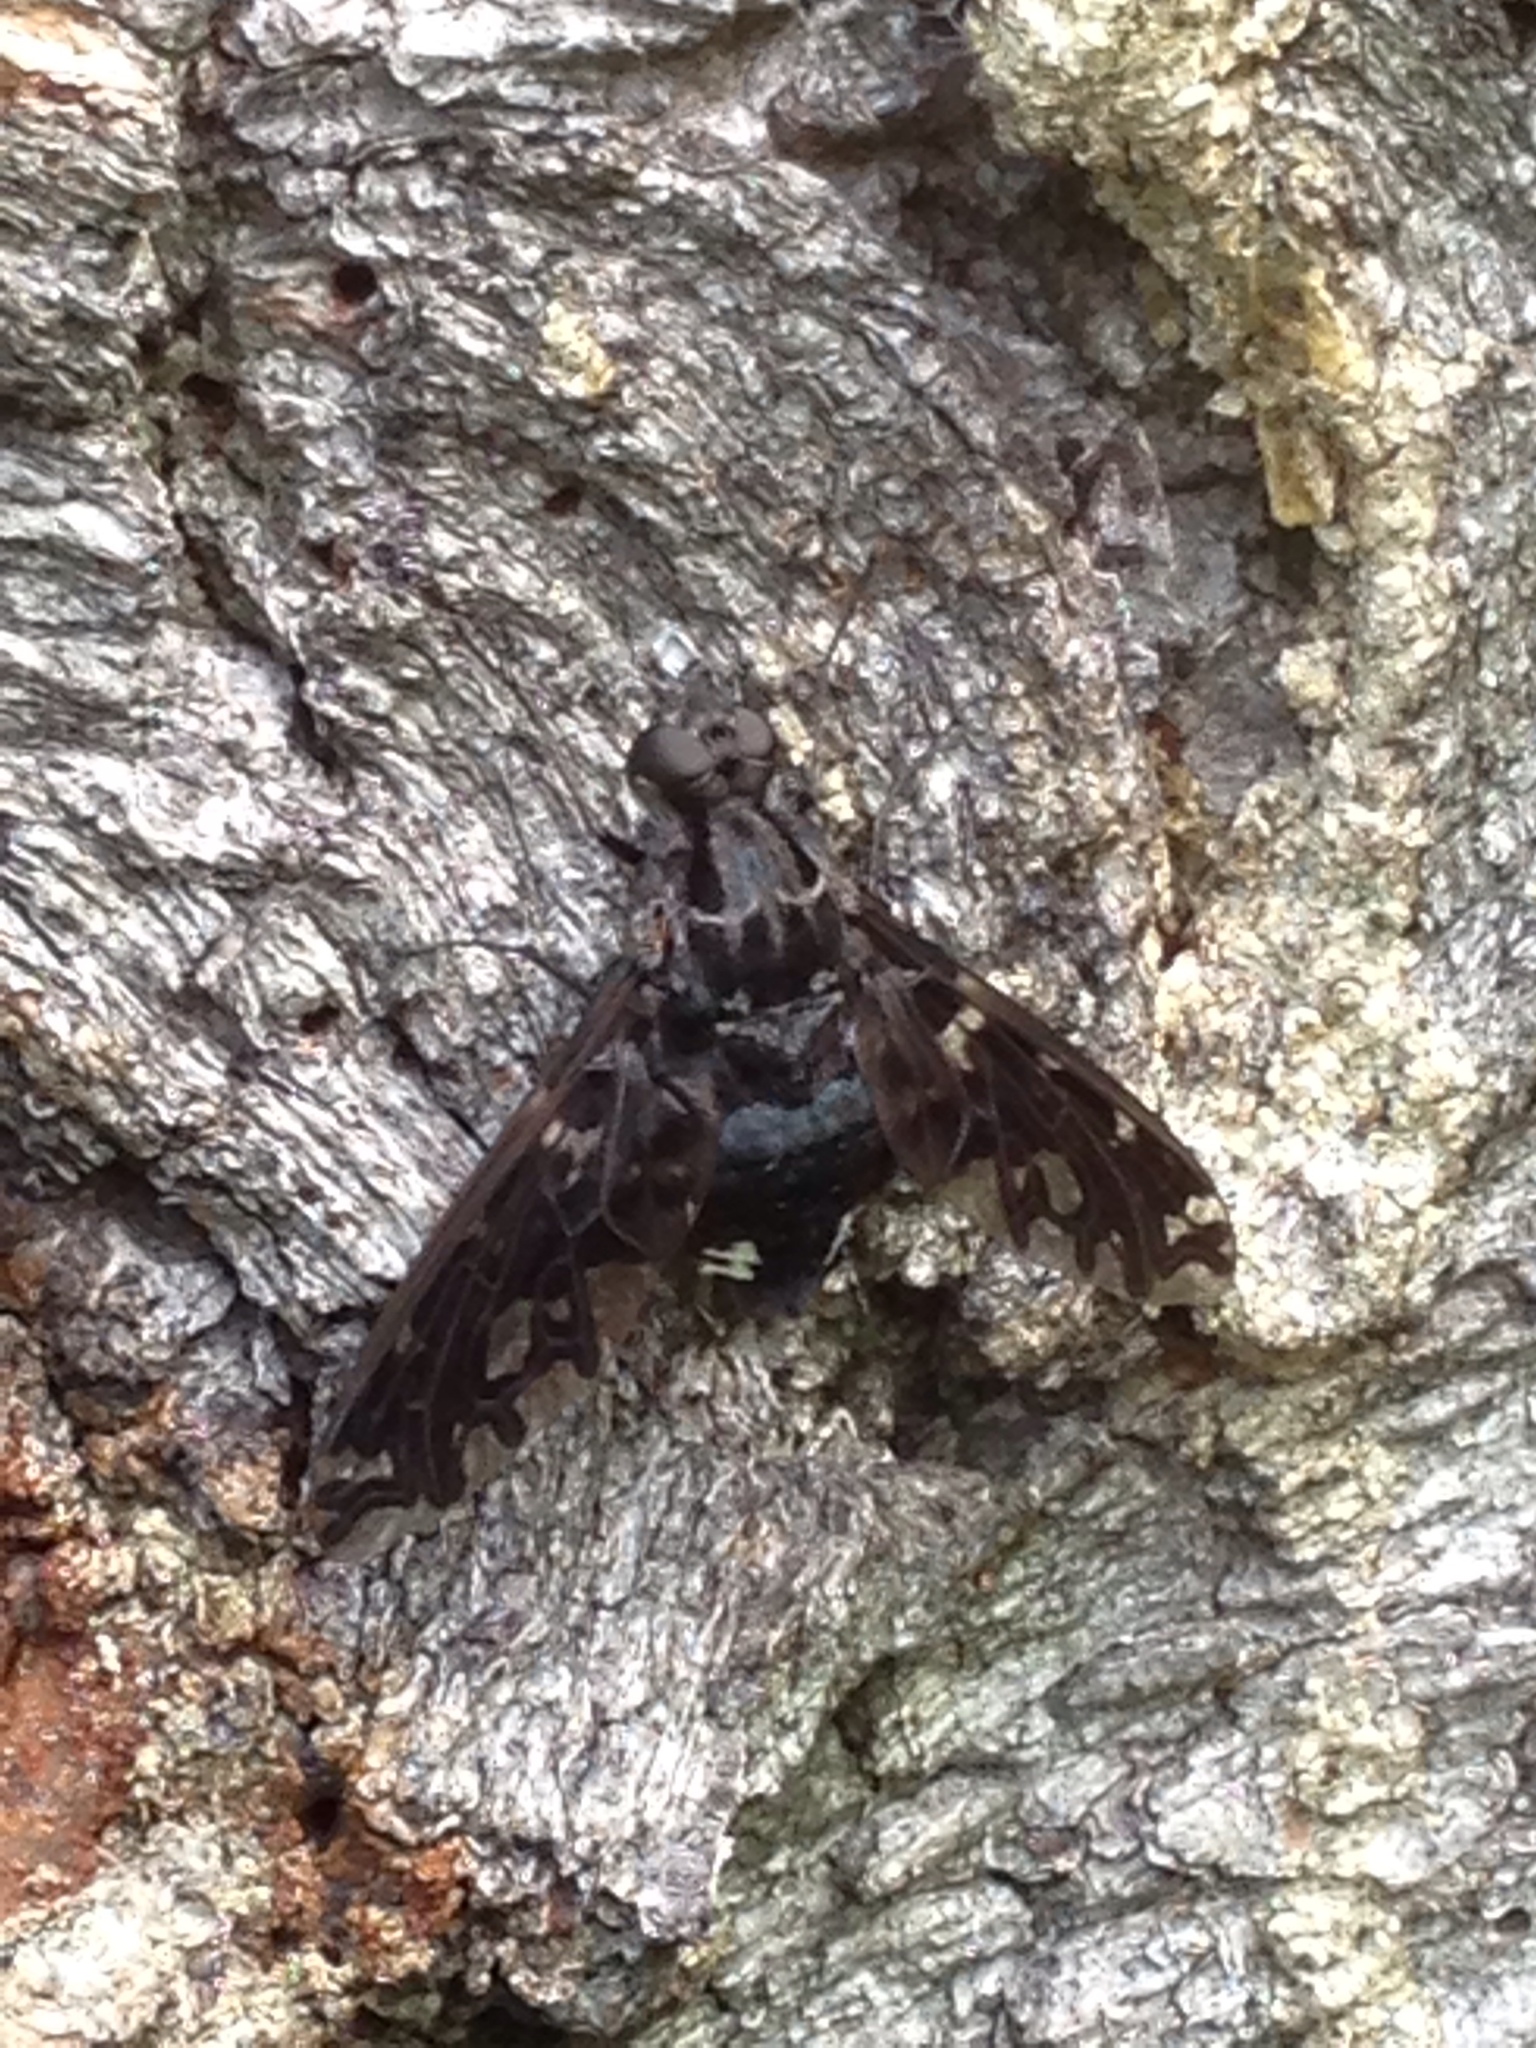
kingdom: Animalia
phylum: Arthropoda
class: Insecta
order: Diptera
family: Bombyliidae
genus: Xenox
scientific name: Xenox tigrinus
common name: Tiger bee fly
